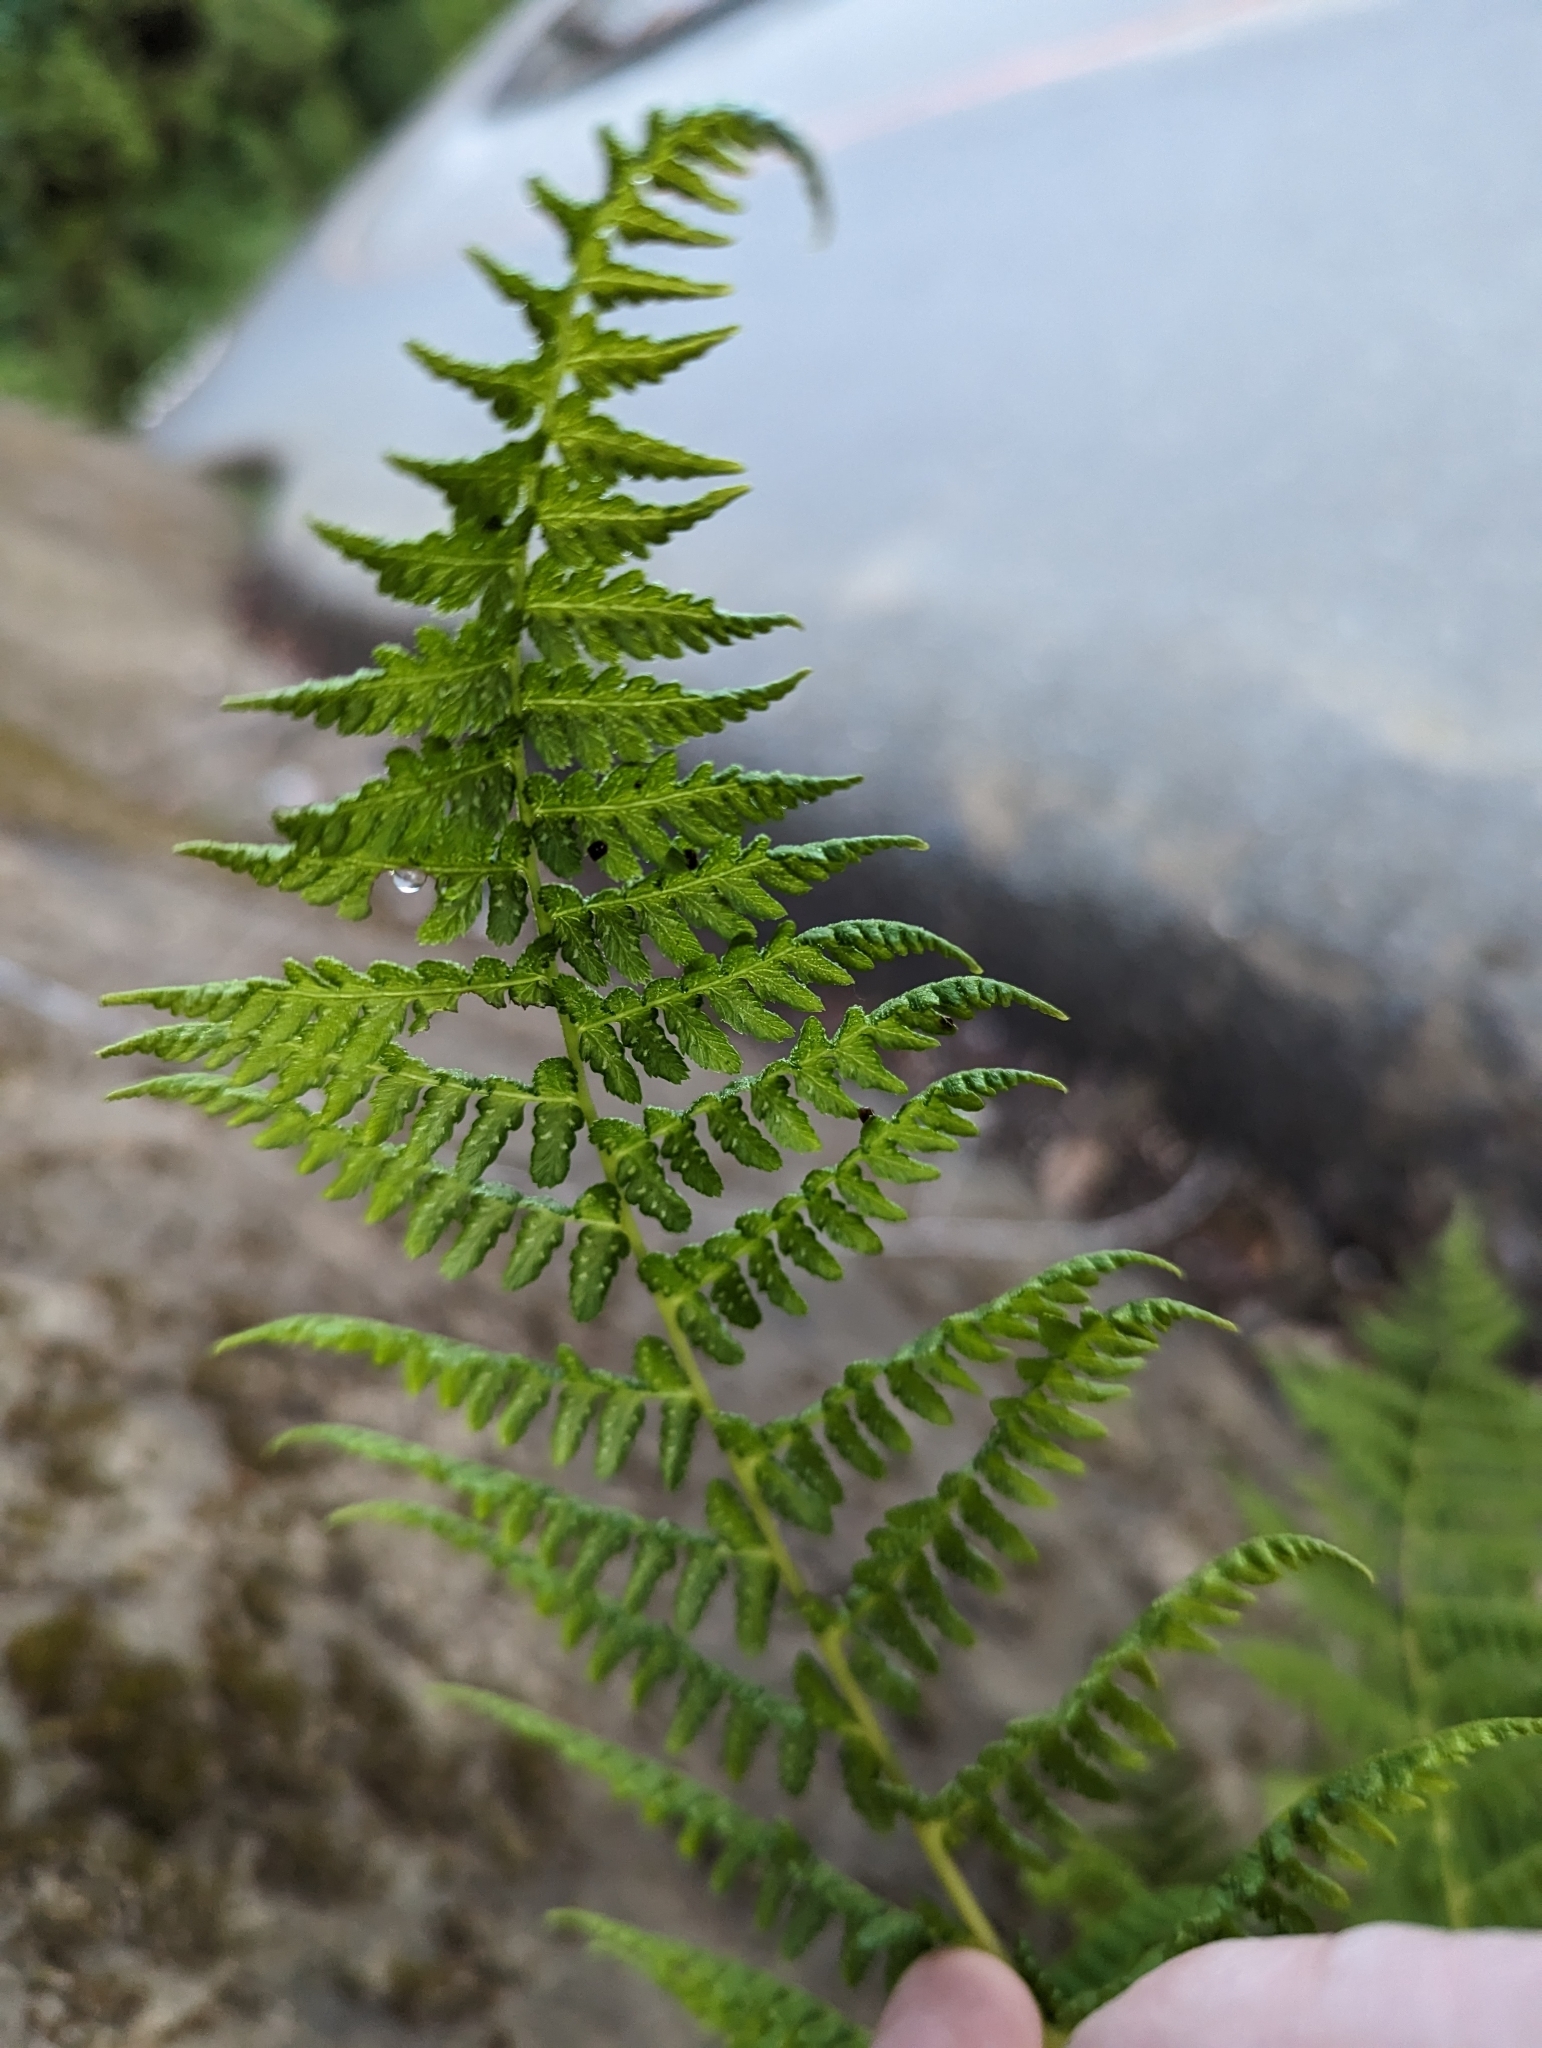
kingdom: Plantae
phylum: Tracheophyta
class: Polypodiopsida
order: Polypodiales
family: Athyriaceae
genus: Athyrium
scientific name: Athyrium filix-femina
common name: Lady fern
